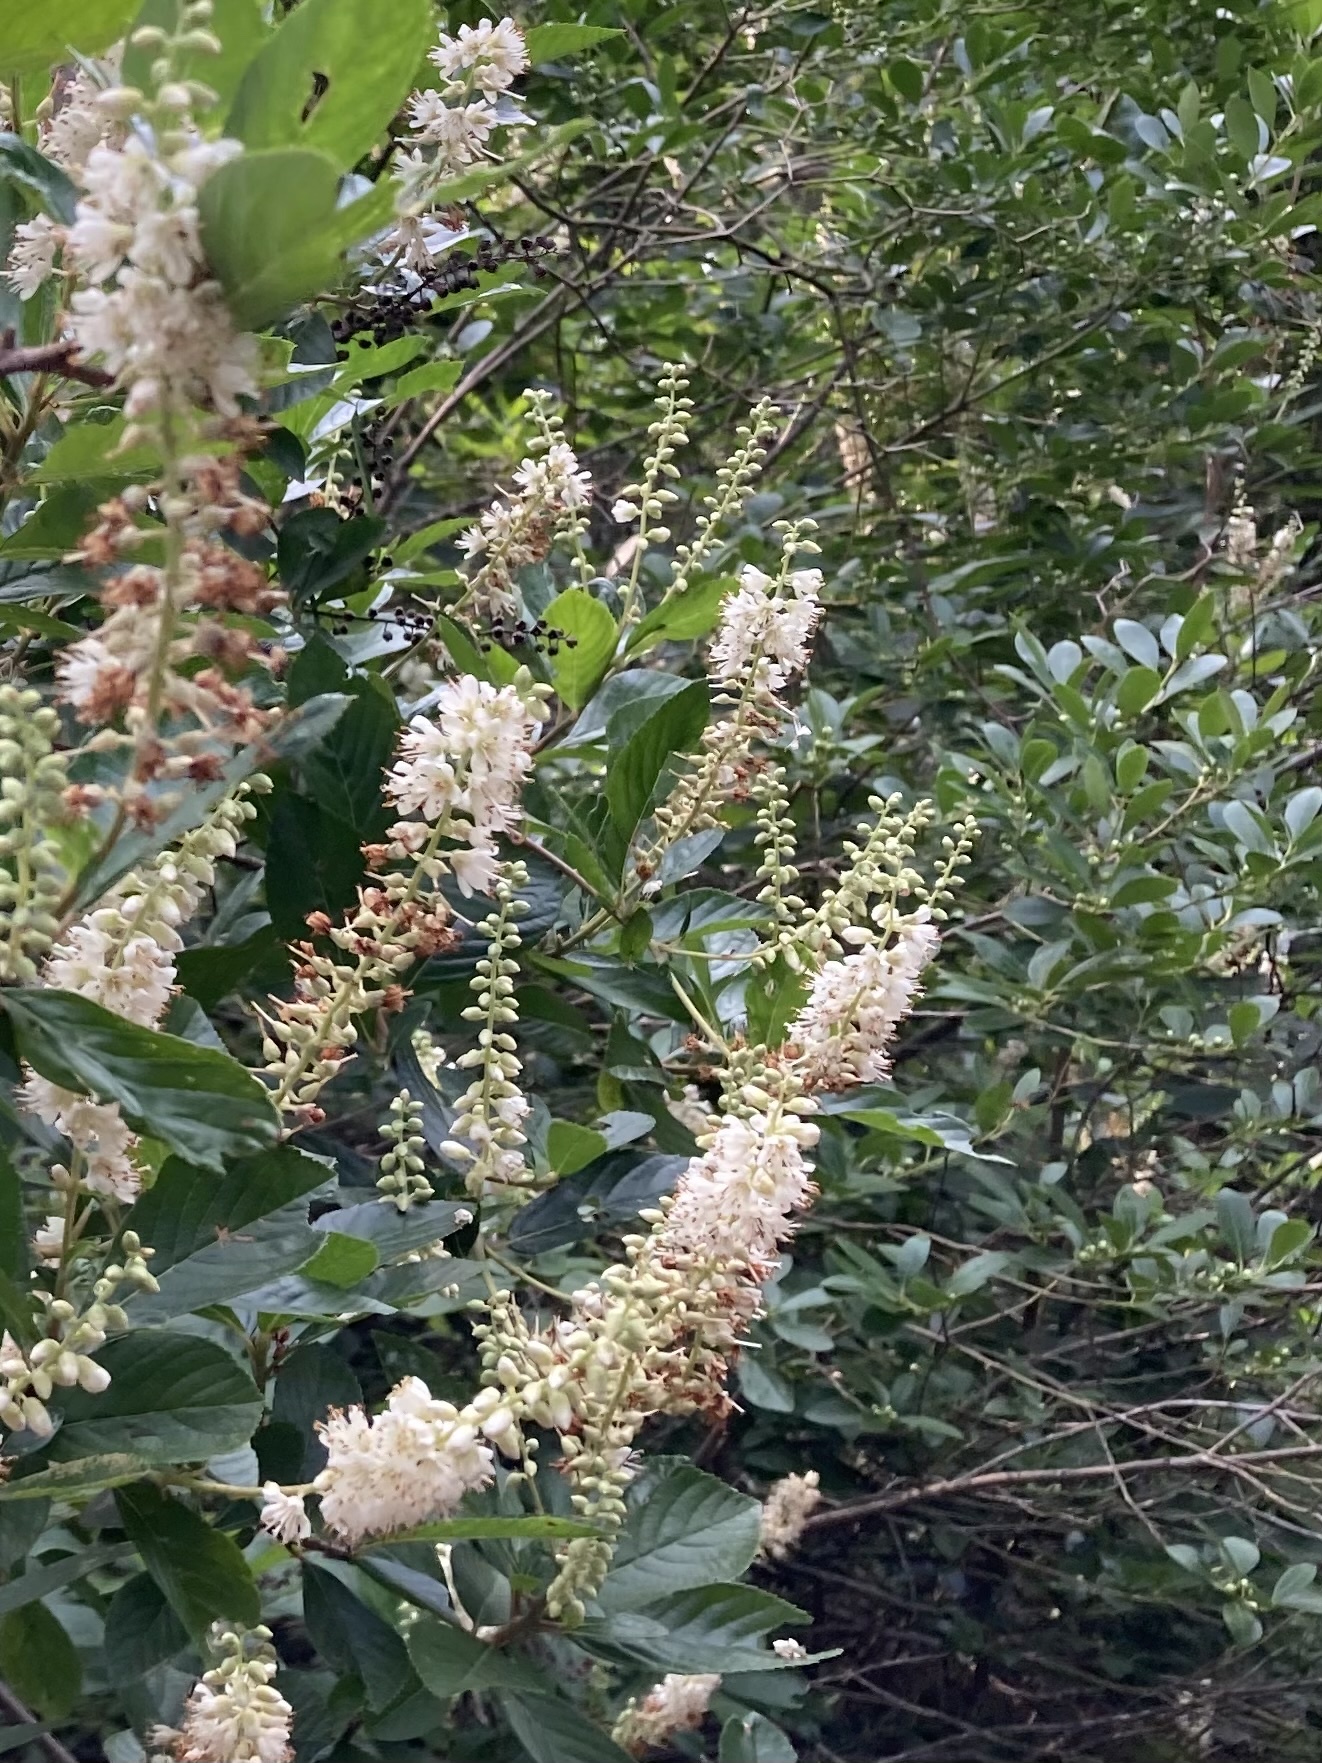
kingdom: Plantae
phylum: Tracheophyta
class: Magnoliopsida
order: Ericales
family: Clethraceae
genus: Clethra
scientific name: Clethra alnifolia
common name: Sweet pepperbush
